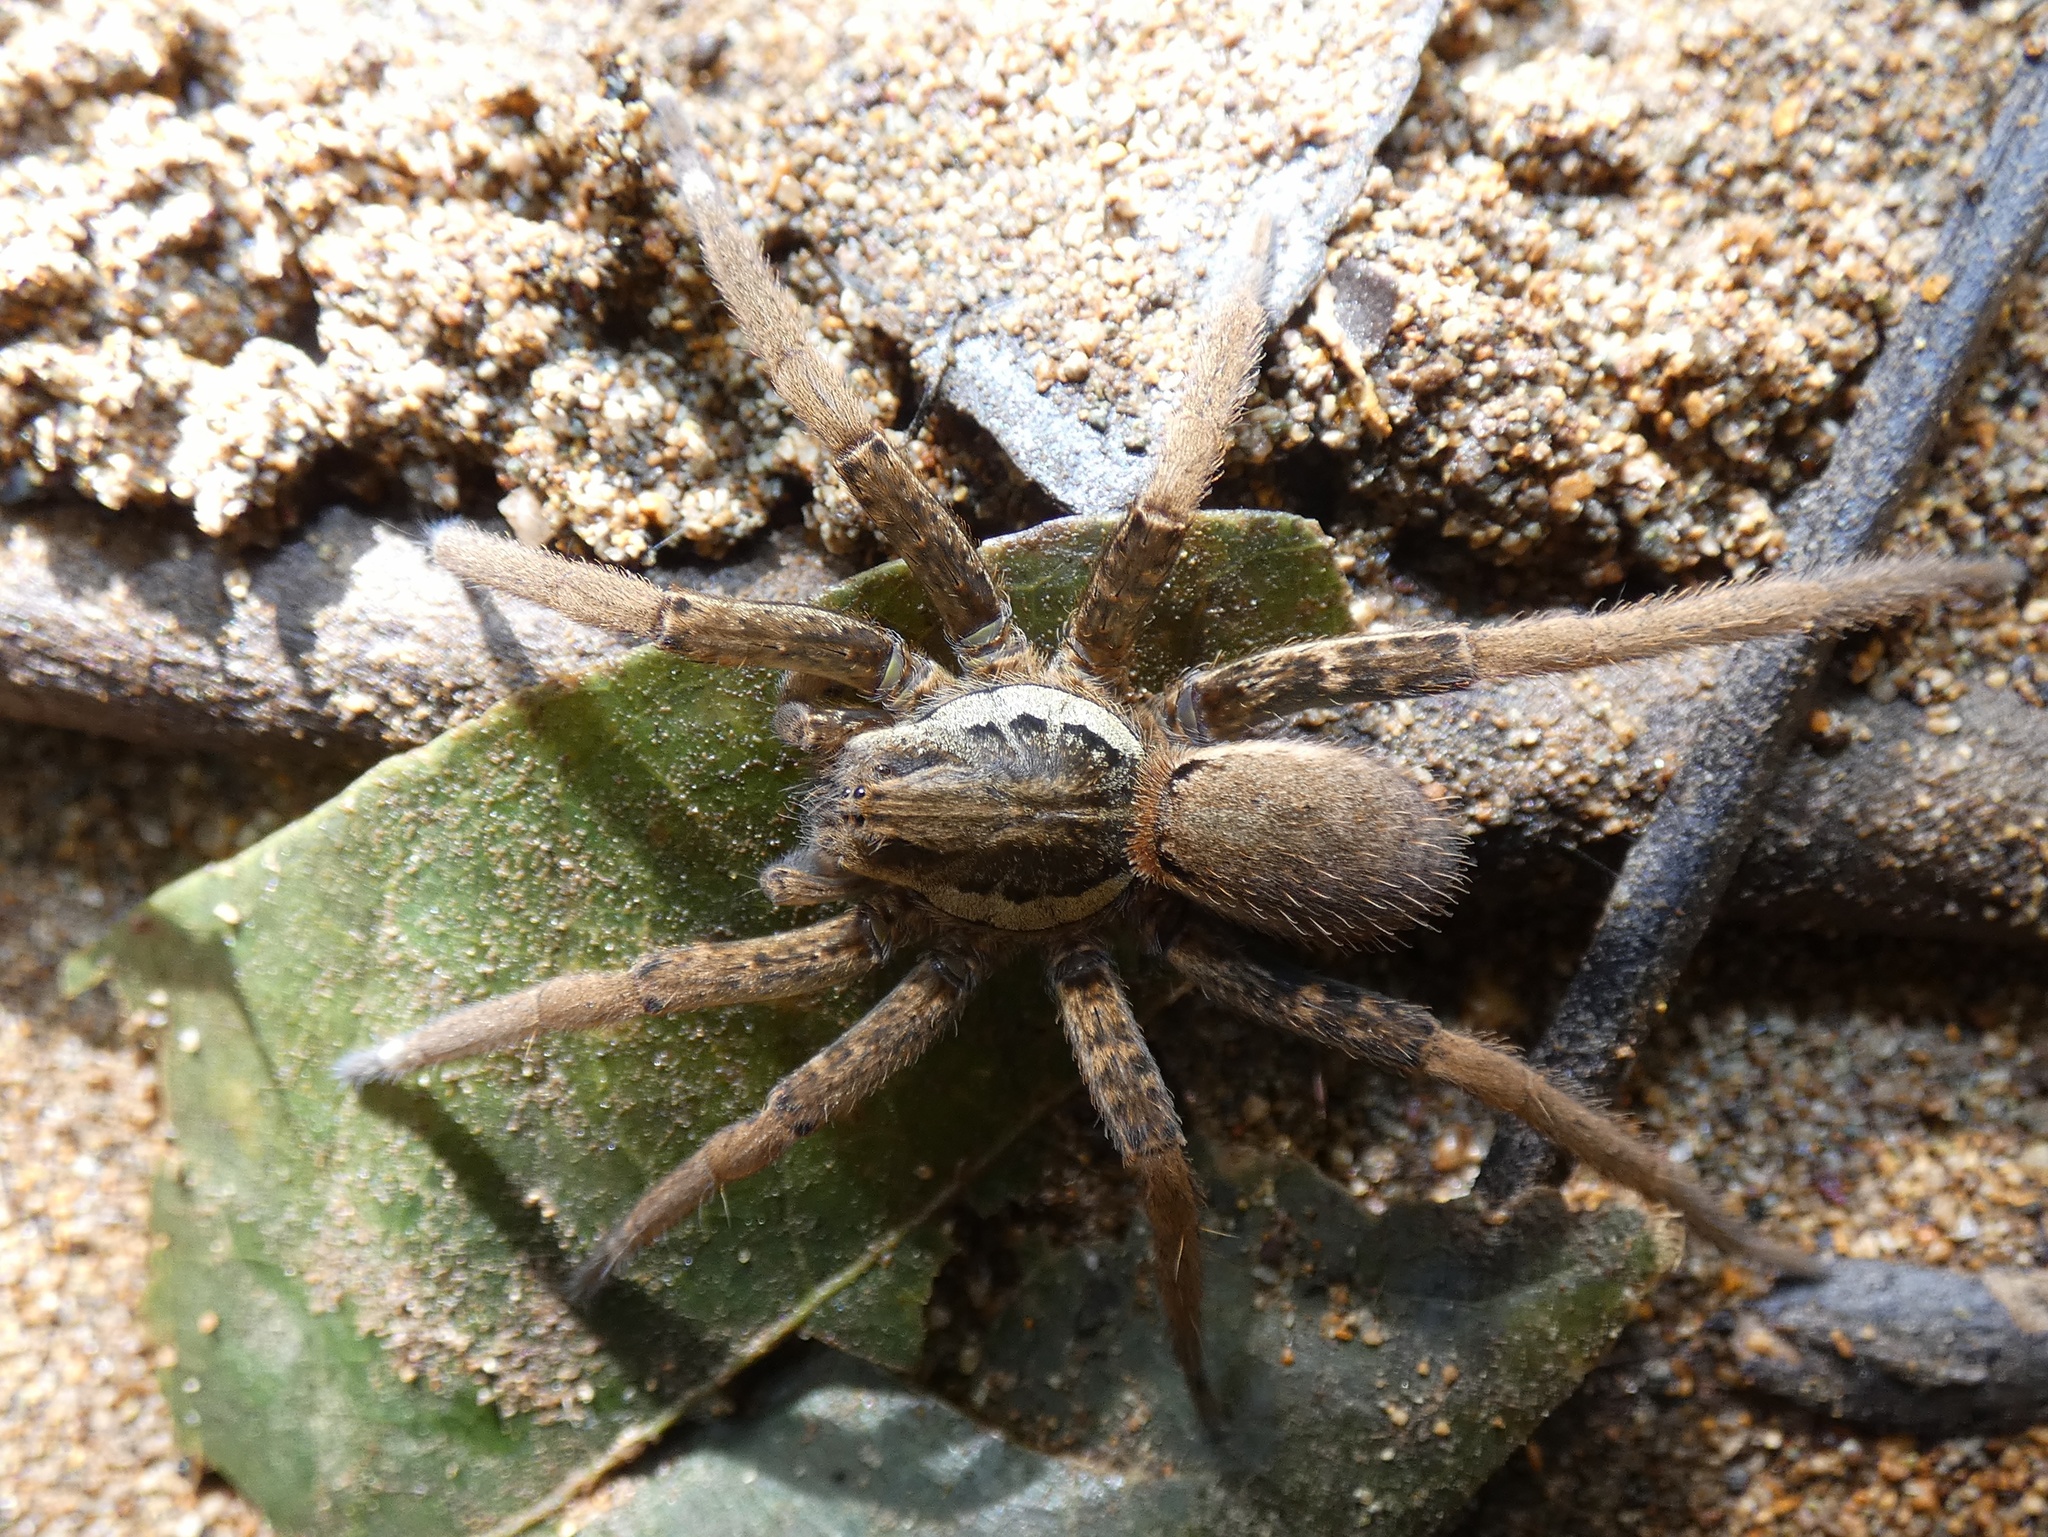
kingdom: Animalia
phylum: Arthropoda
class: Arachnida
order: Araneae
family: Ctenidae
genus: Ancylometes
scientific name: Ancylometes bogotensis
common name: Wandering spiders
